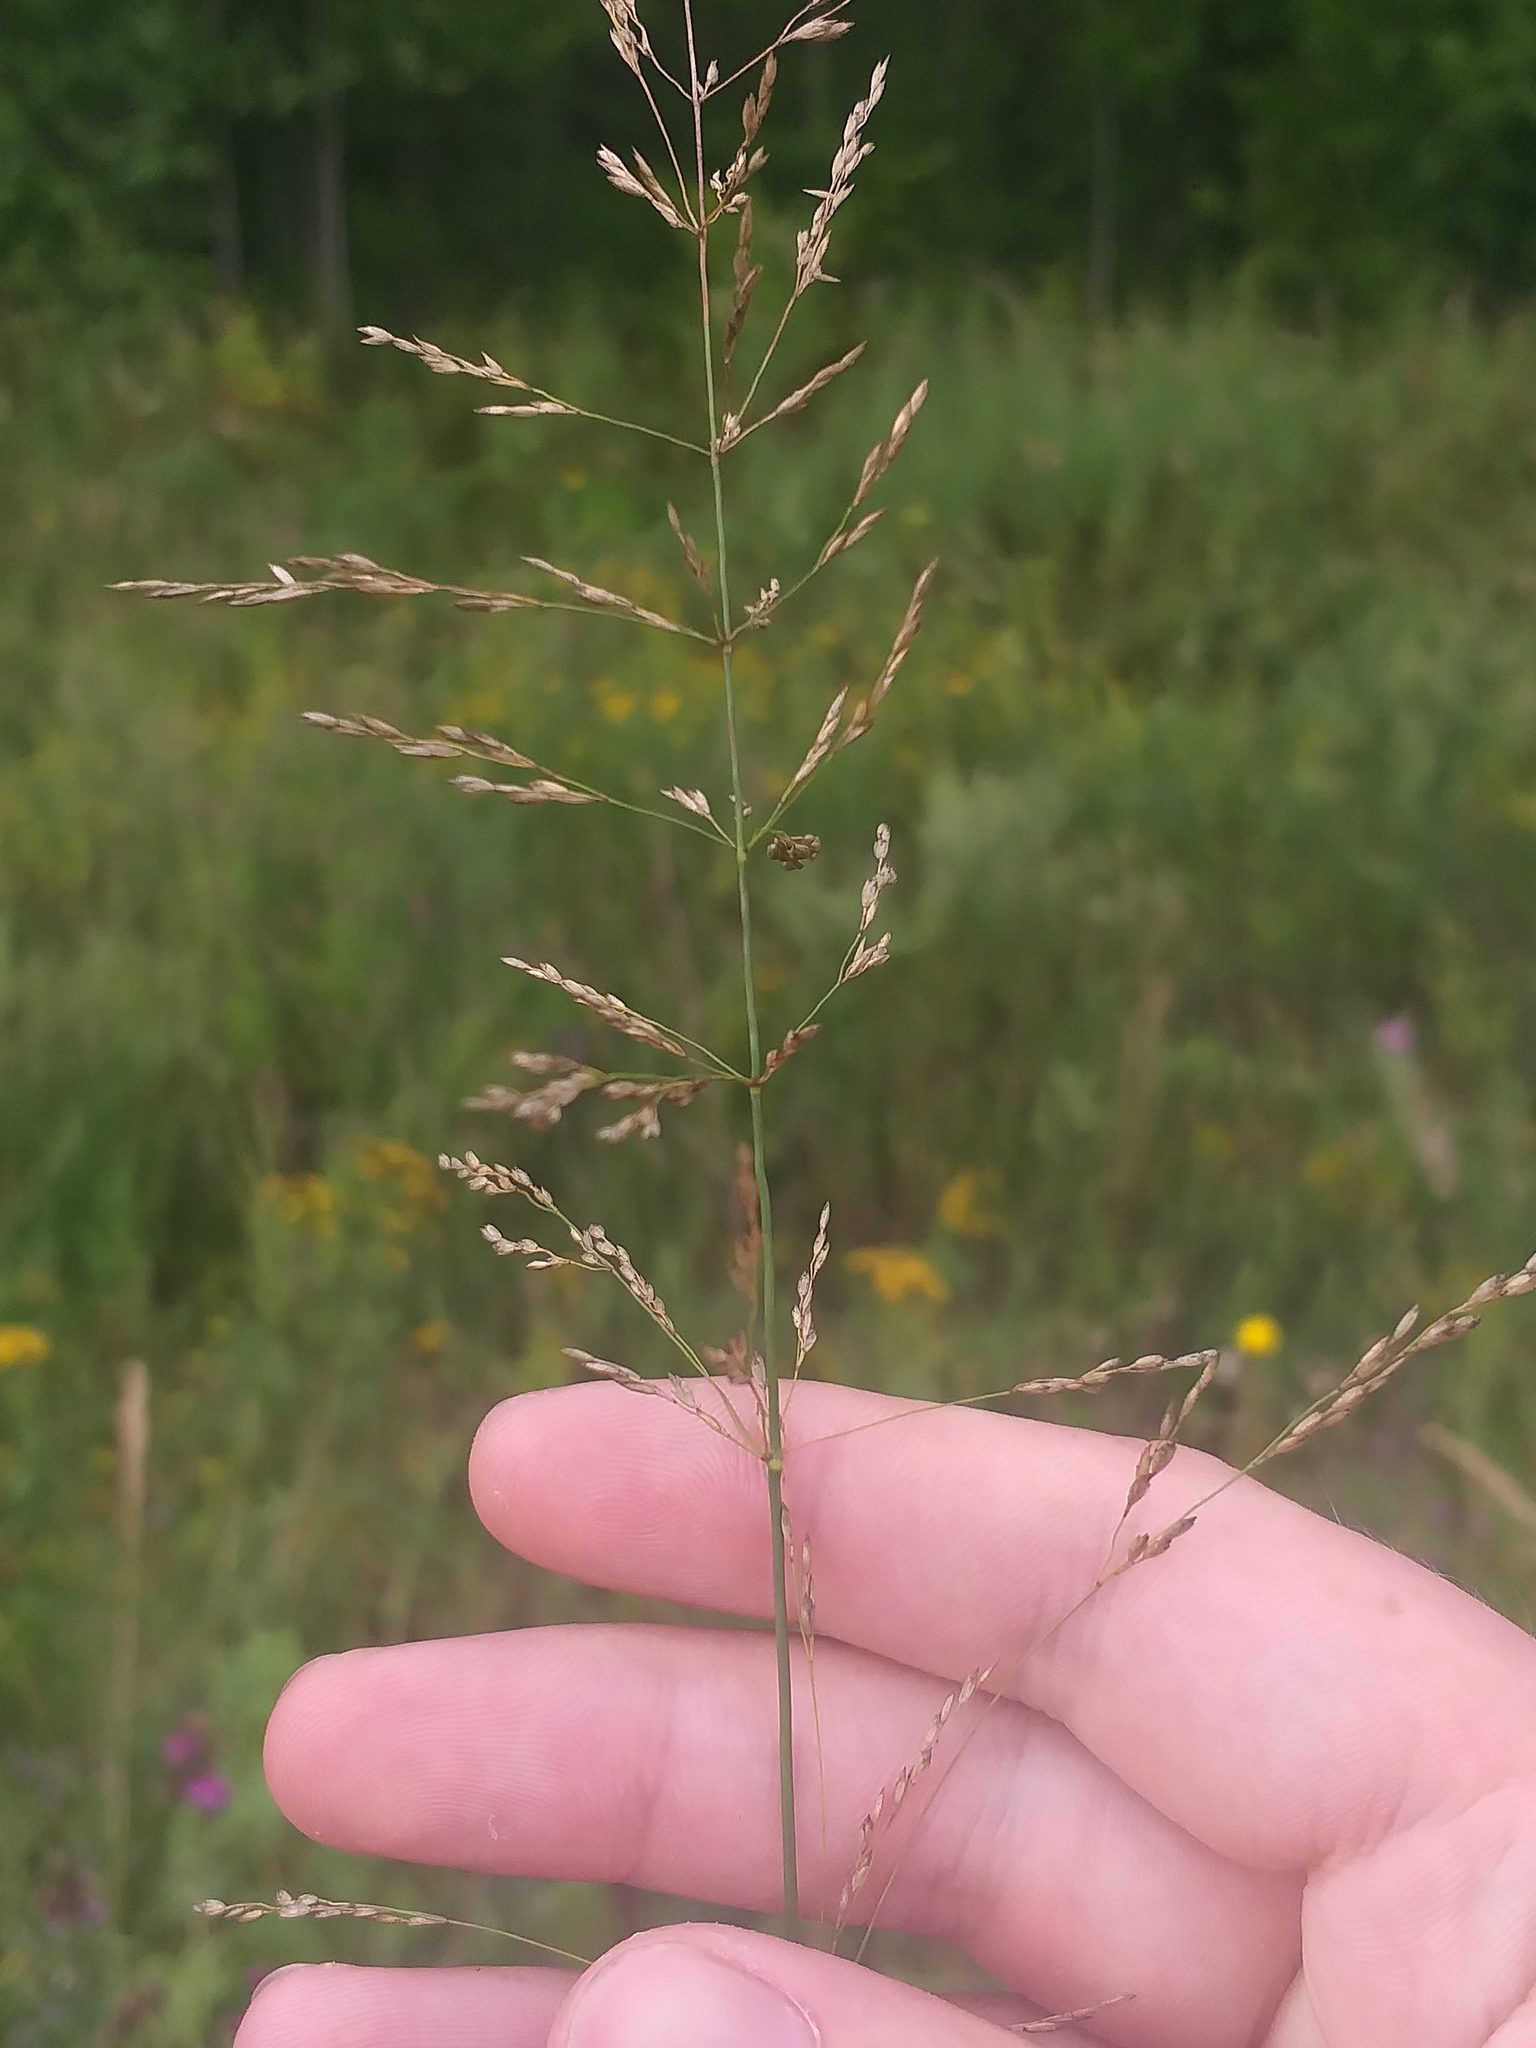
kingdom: Plantae
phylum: Tracheophyta
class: Liliopsida
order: Poales
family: Poaceae
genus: Poa
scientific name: Poa palustris
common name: Swamp meadow-grass
